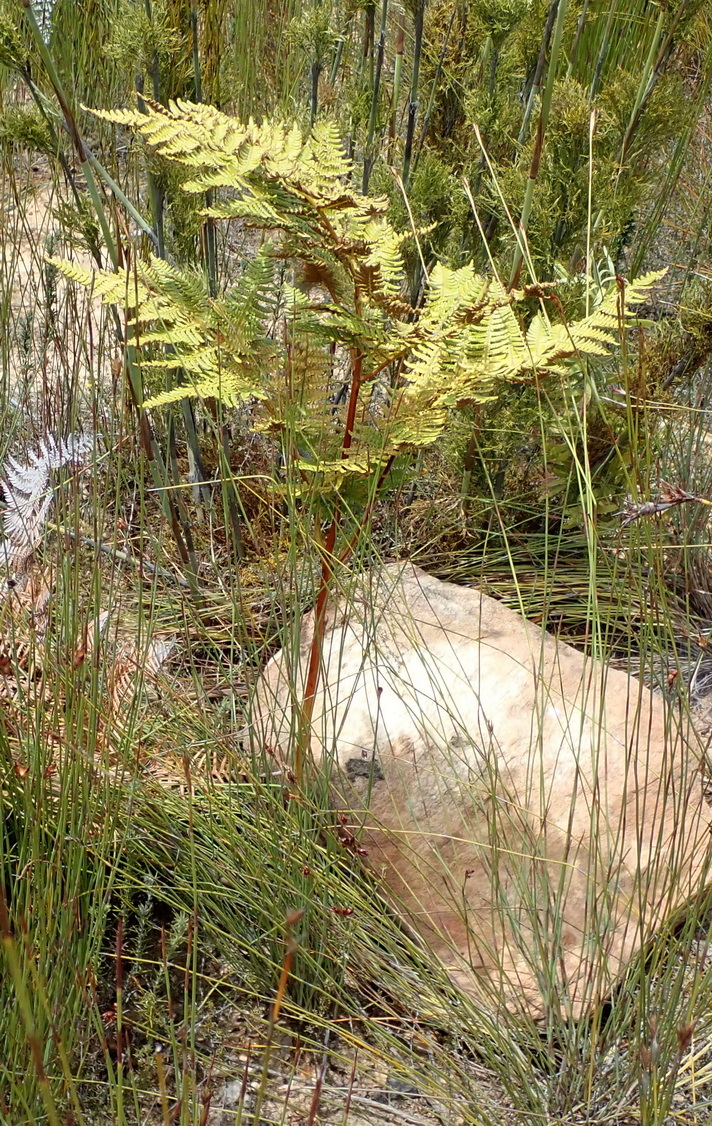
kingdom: Plantae
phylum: Tracheophyta
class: Polypodiopsida
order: Polypodiales
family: Dennstaedtiaceae
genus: Pteridium
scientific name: Pteridium aquilinum
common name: Bracken
